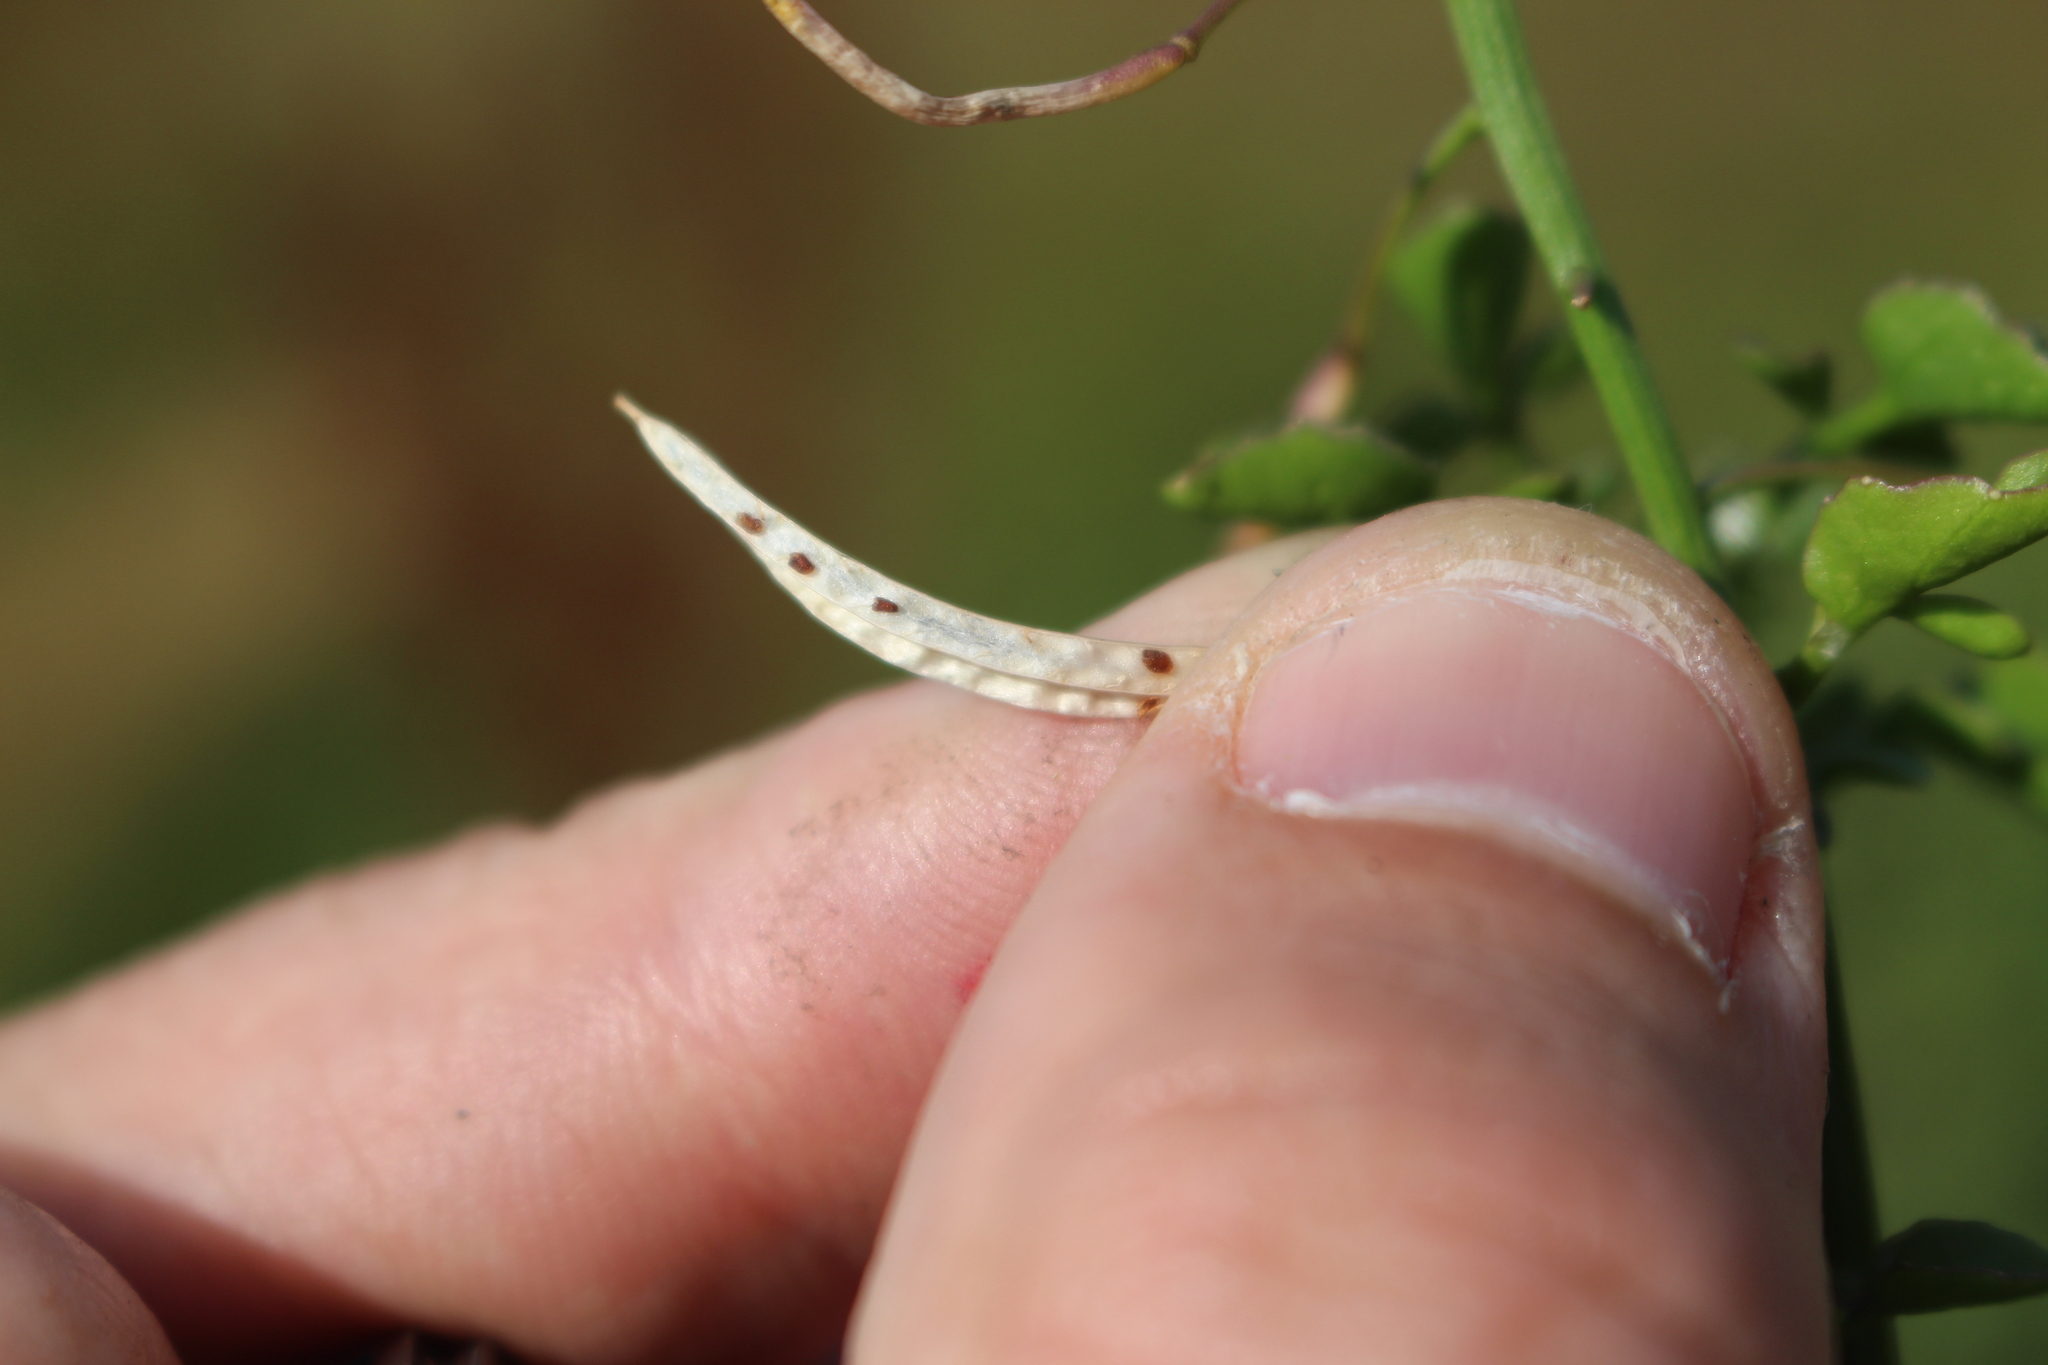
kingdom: Plantae
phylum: Tracheophyta
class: Magnoliopsida
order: Brassicales
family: Brassicaceae
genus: Nasturtium
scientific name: Nasturtium officinale
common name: Watercress
